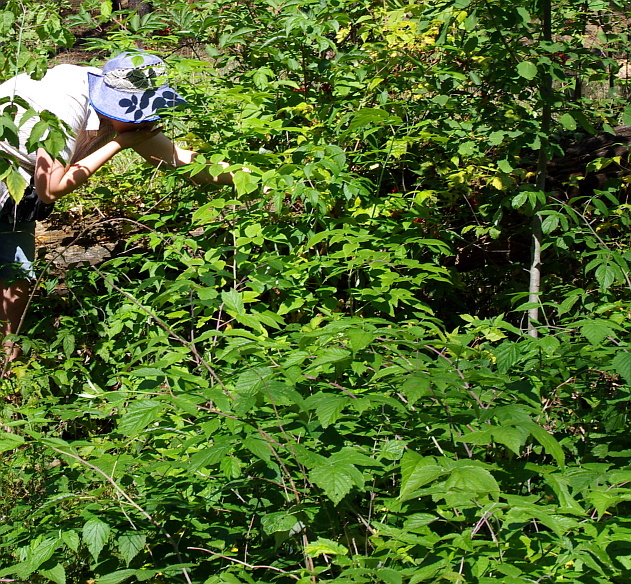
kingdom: Plantae
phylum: Tracheophyta
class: Magnoliopsida
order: Rosales
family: Rosaceae
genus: Rubus
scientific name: Rubus idaeus
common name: Raspberry
